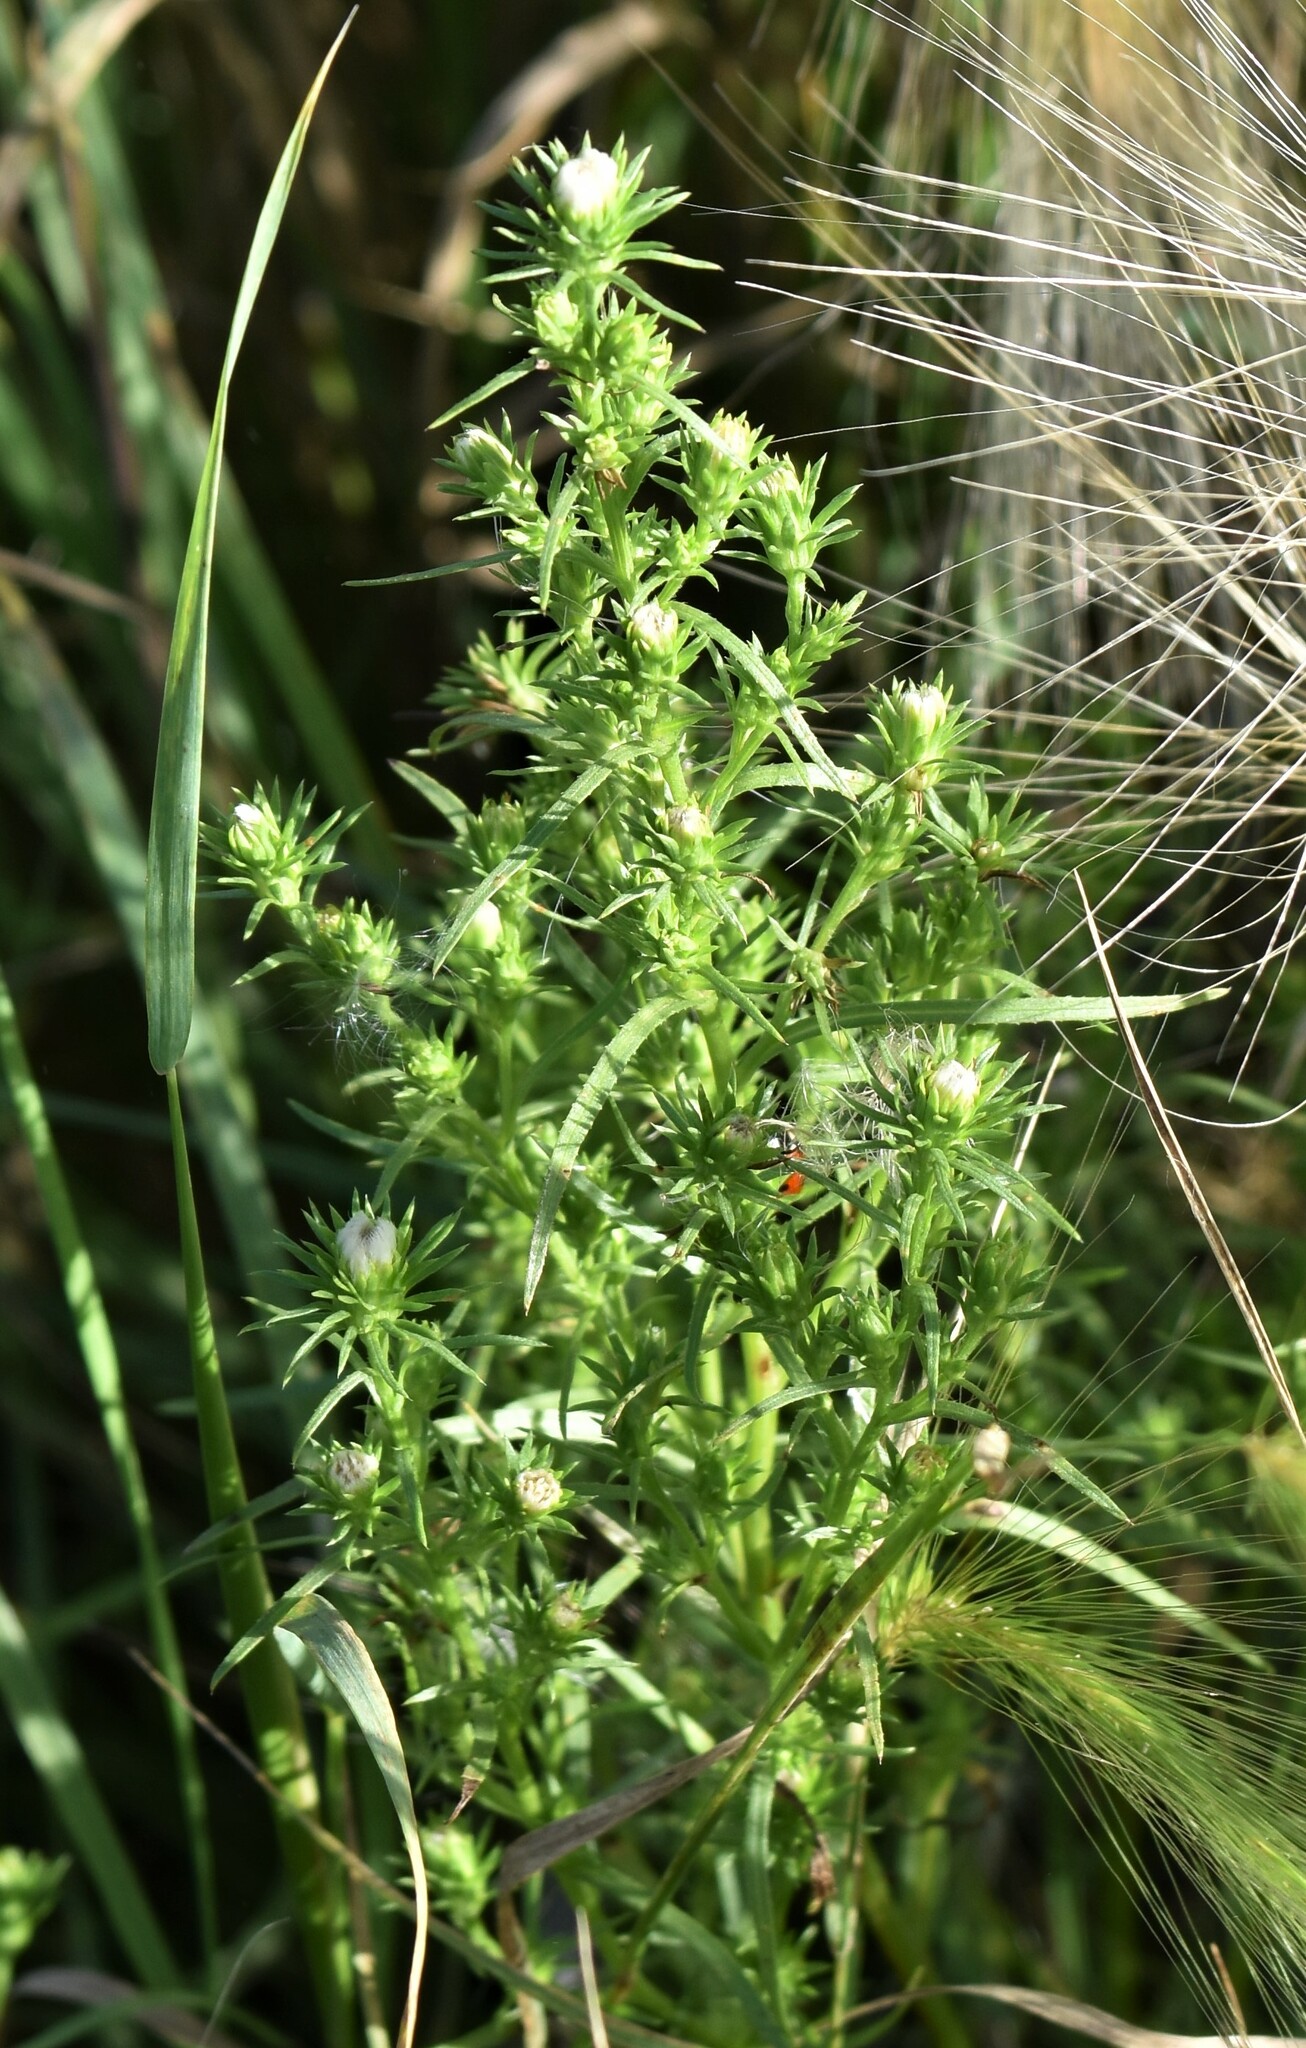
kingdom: Plantae
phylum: Tracheophyta
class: Magnoliopsida
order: Asterales
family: Asteraceae
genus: Symphyotrichum
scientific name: Symphyotrichum ciliatum
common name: Rayless annual aster
